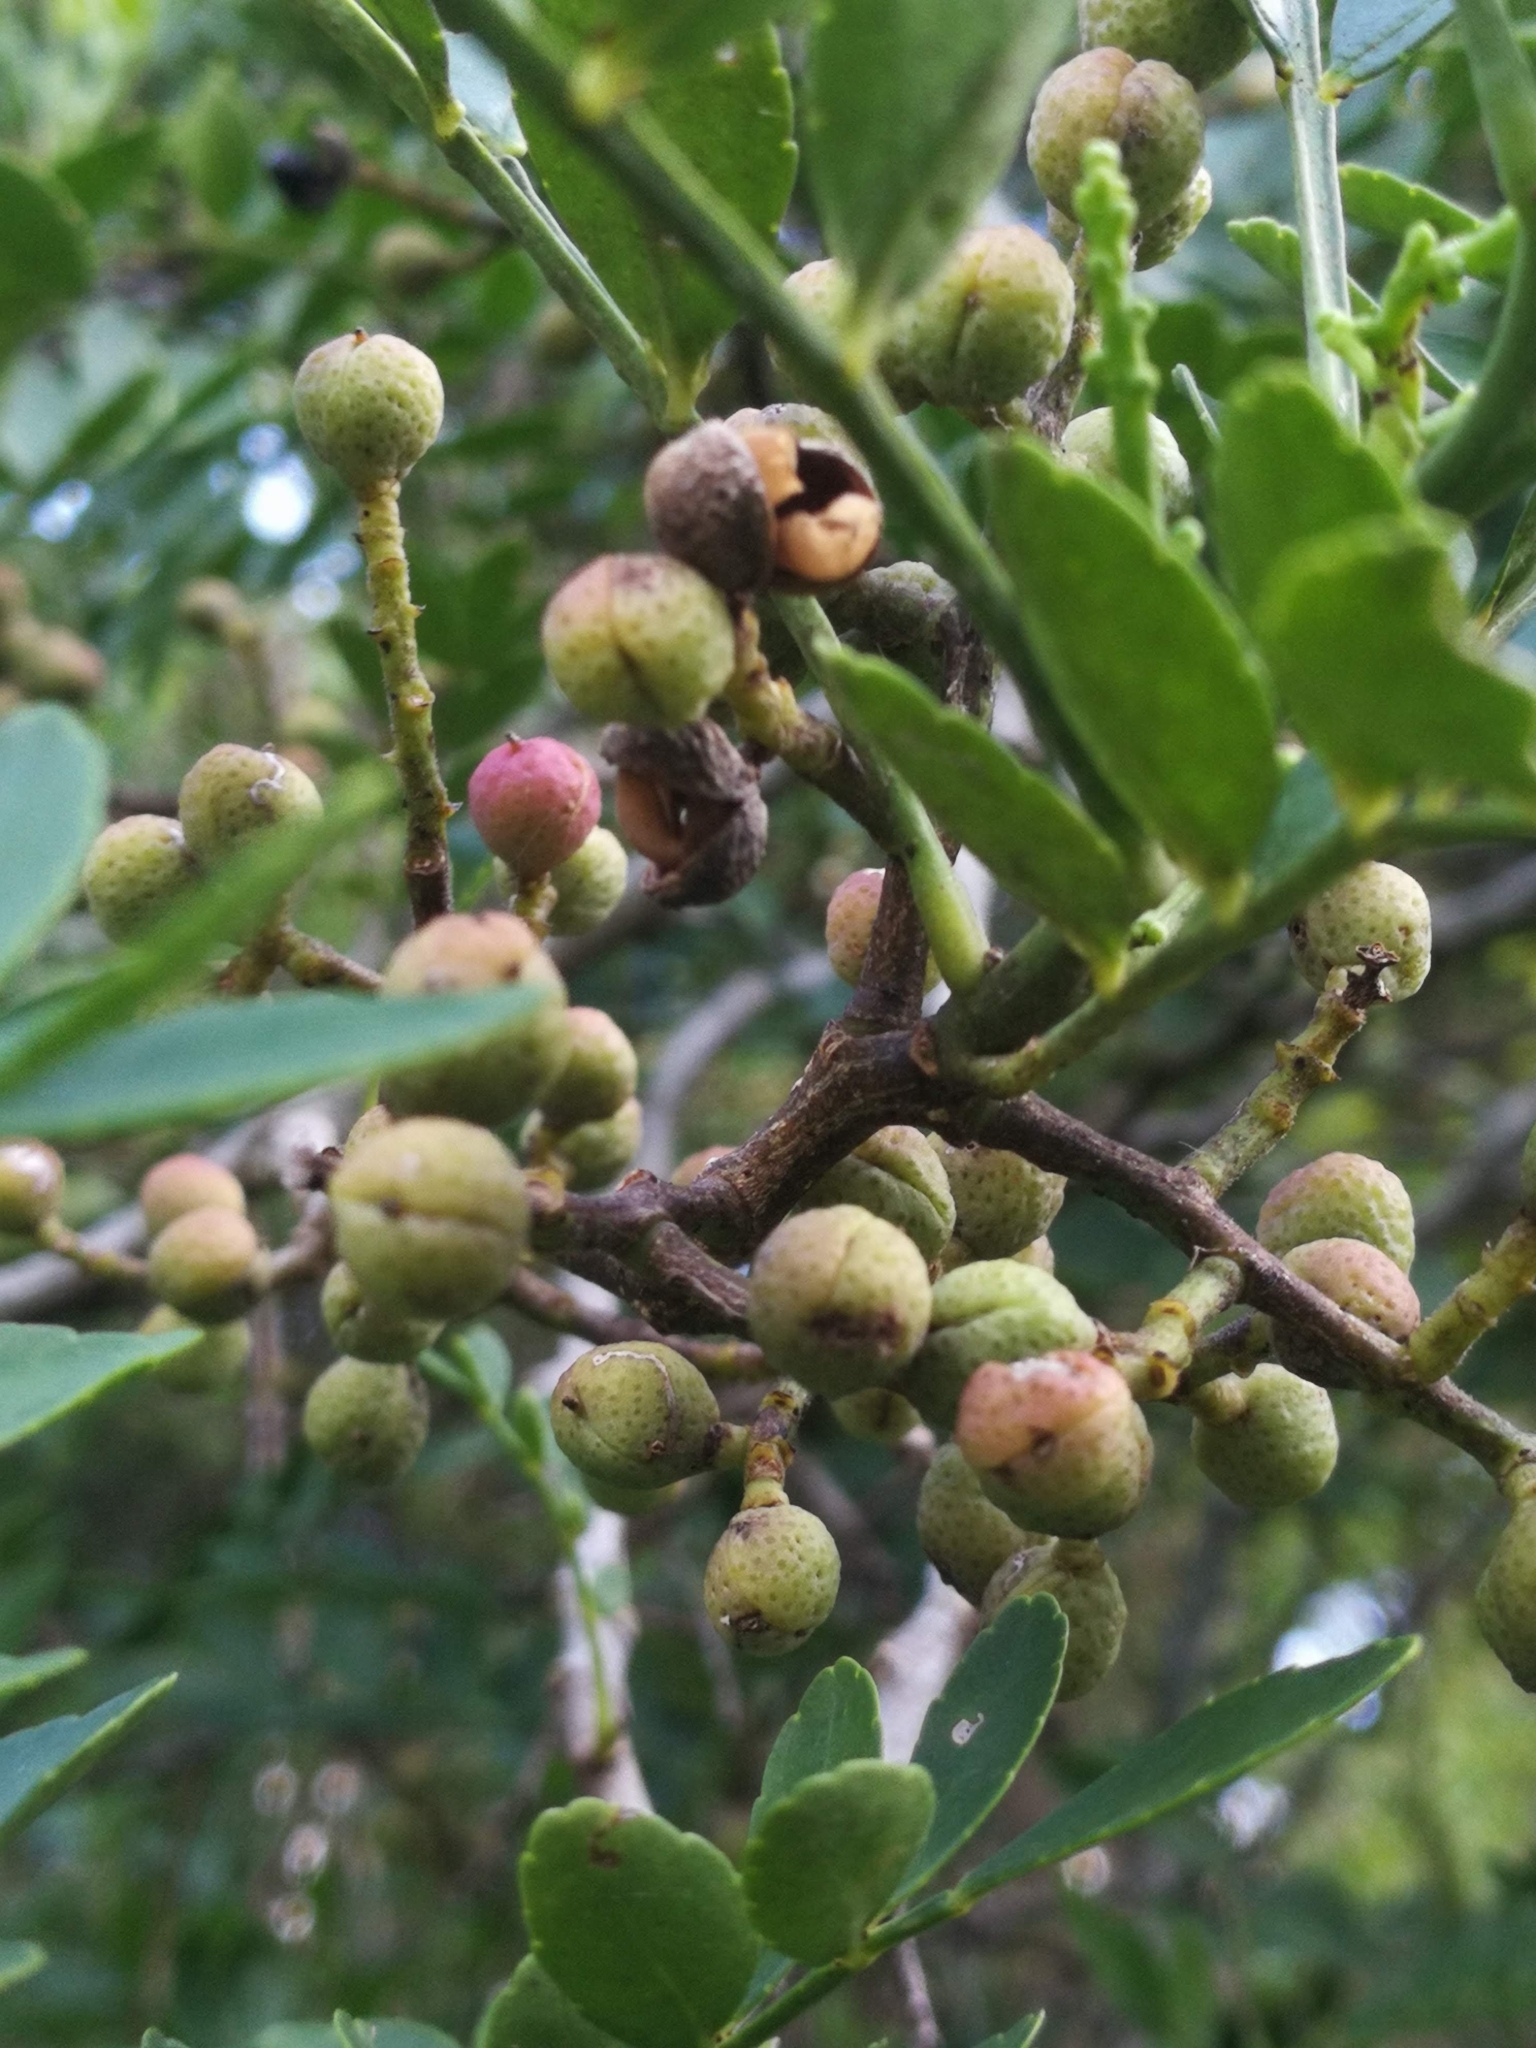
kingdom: Plantae
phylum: Tracheophyta
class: Magnoliopsida
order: Sapindales
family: Rutaceae
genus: Zanthoxylum
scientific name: Zanthoxylum fagara
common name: Lime prickly-ash
